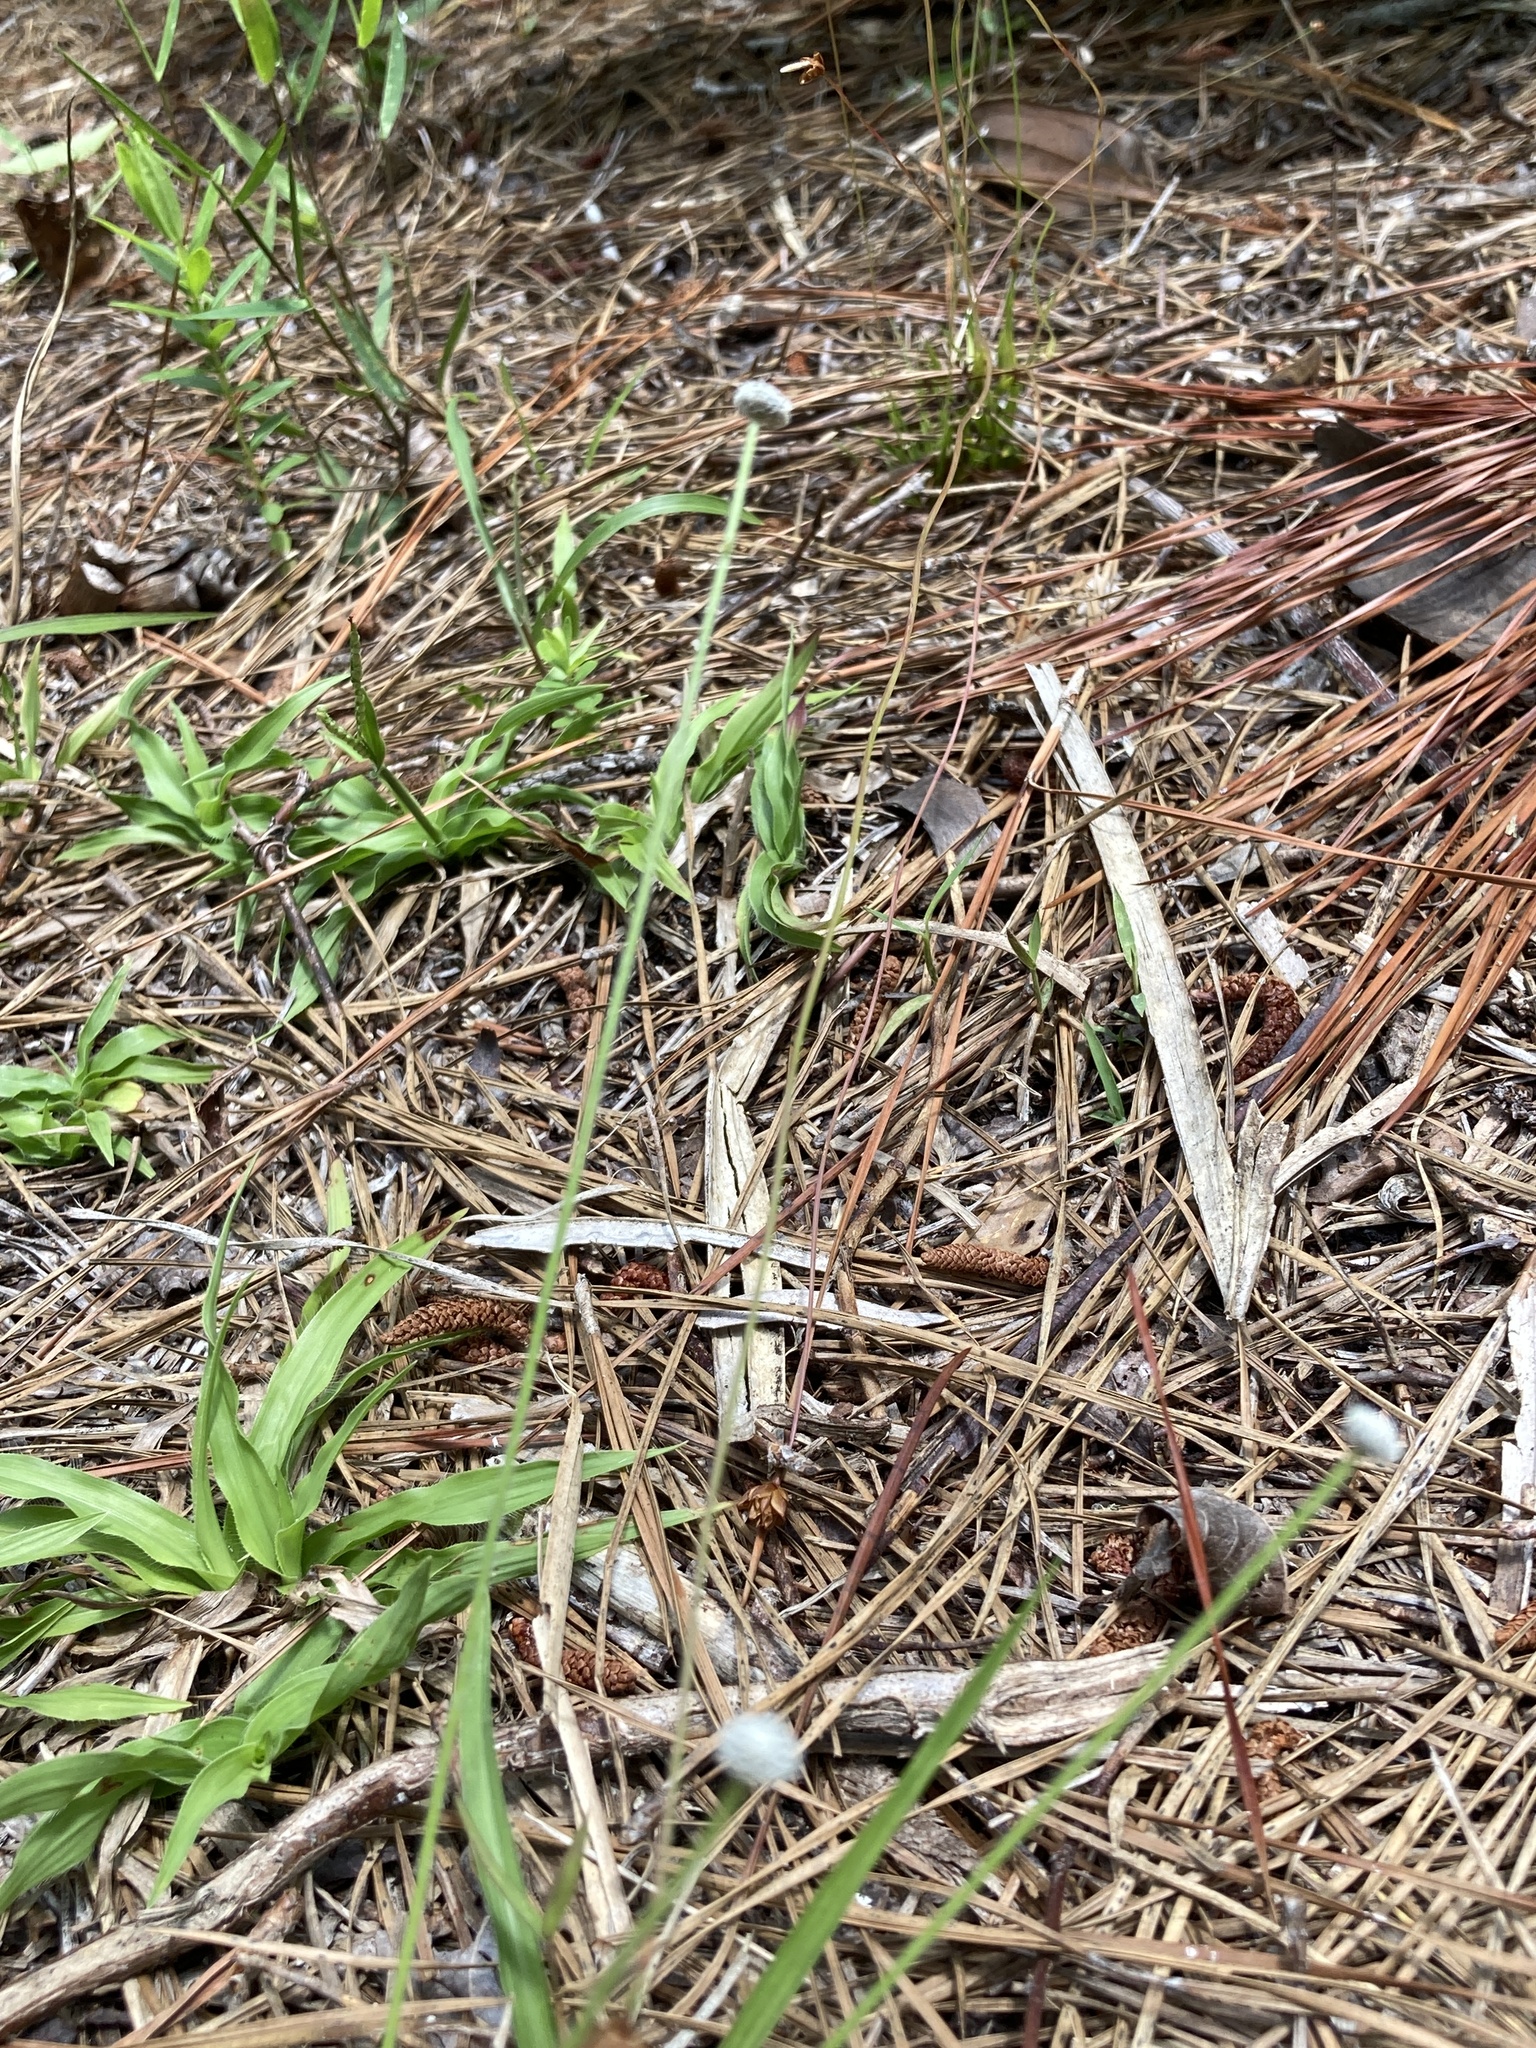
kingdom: Plantae
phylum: Tracheophyta
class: Liliopsida
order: Poales
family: Eriocaulaceae
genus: Paepalanthus
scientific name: Paepalanthus anceps
